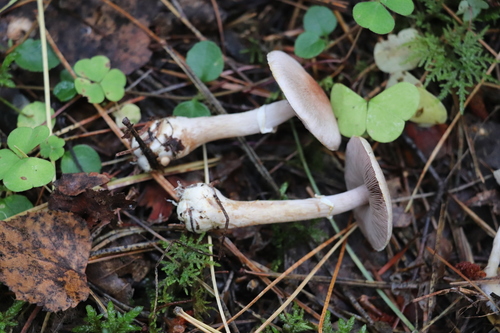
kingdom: Fungi
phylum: Basidiomycota
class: Agaricomycetes
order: Agaricales
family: Agaricaceae
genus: Agaricus
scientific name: Agaricus semotus
